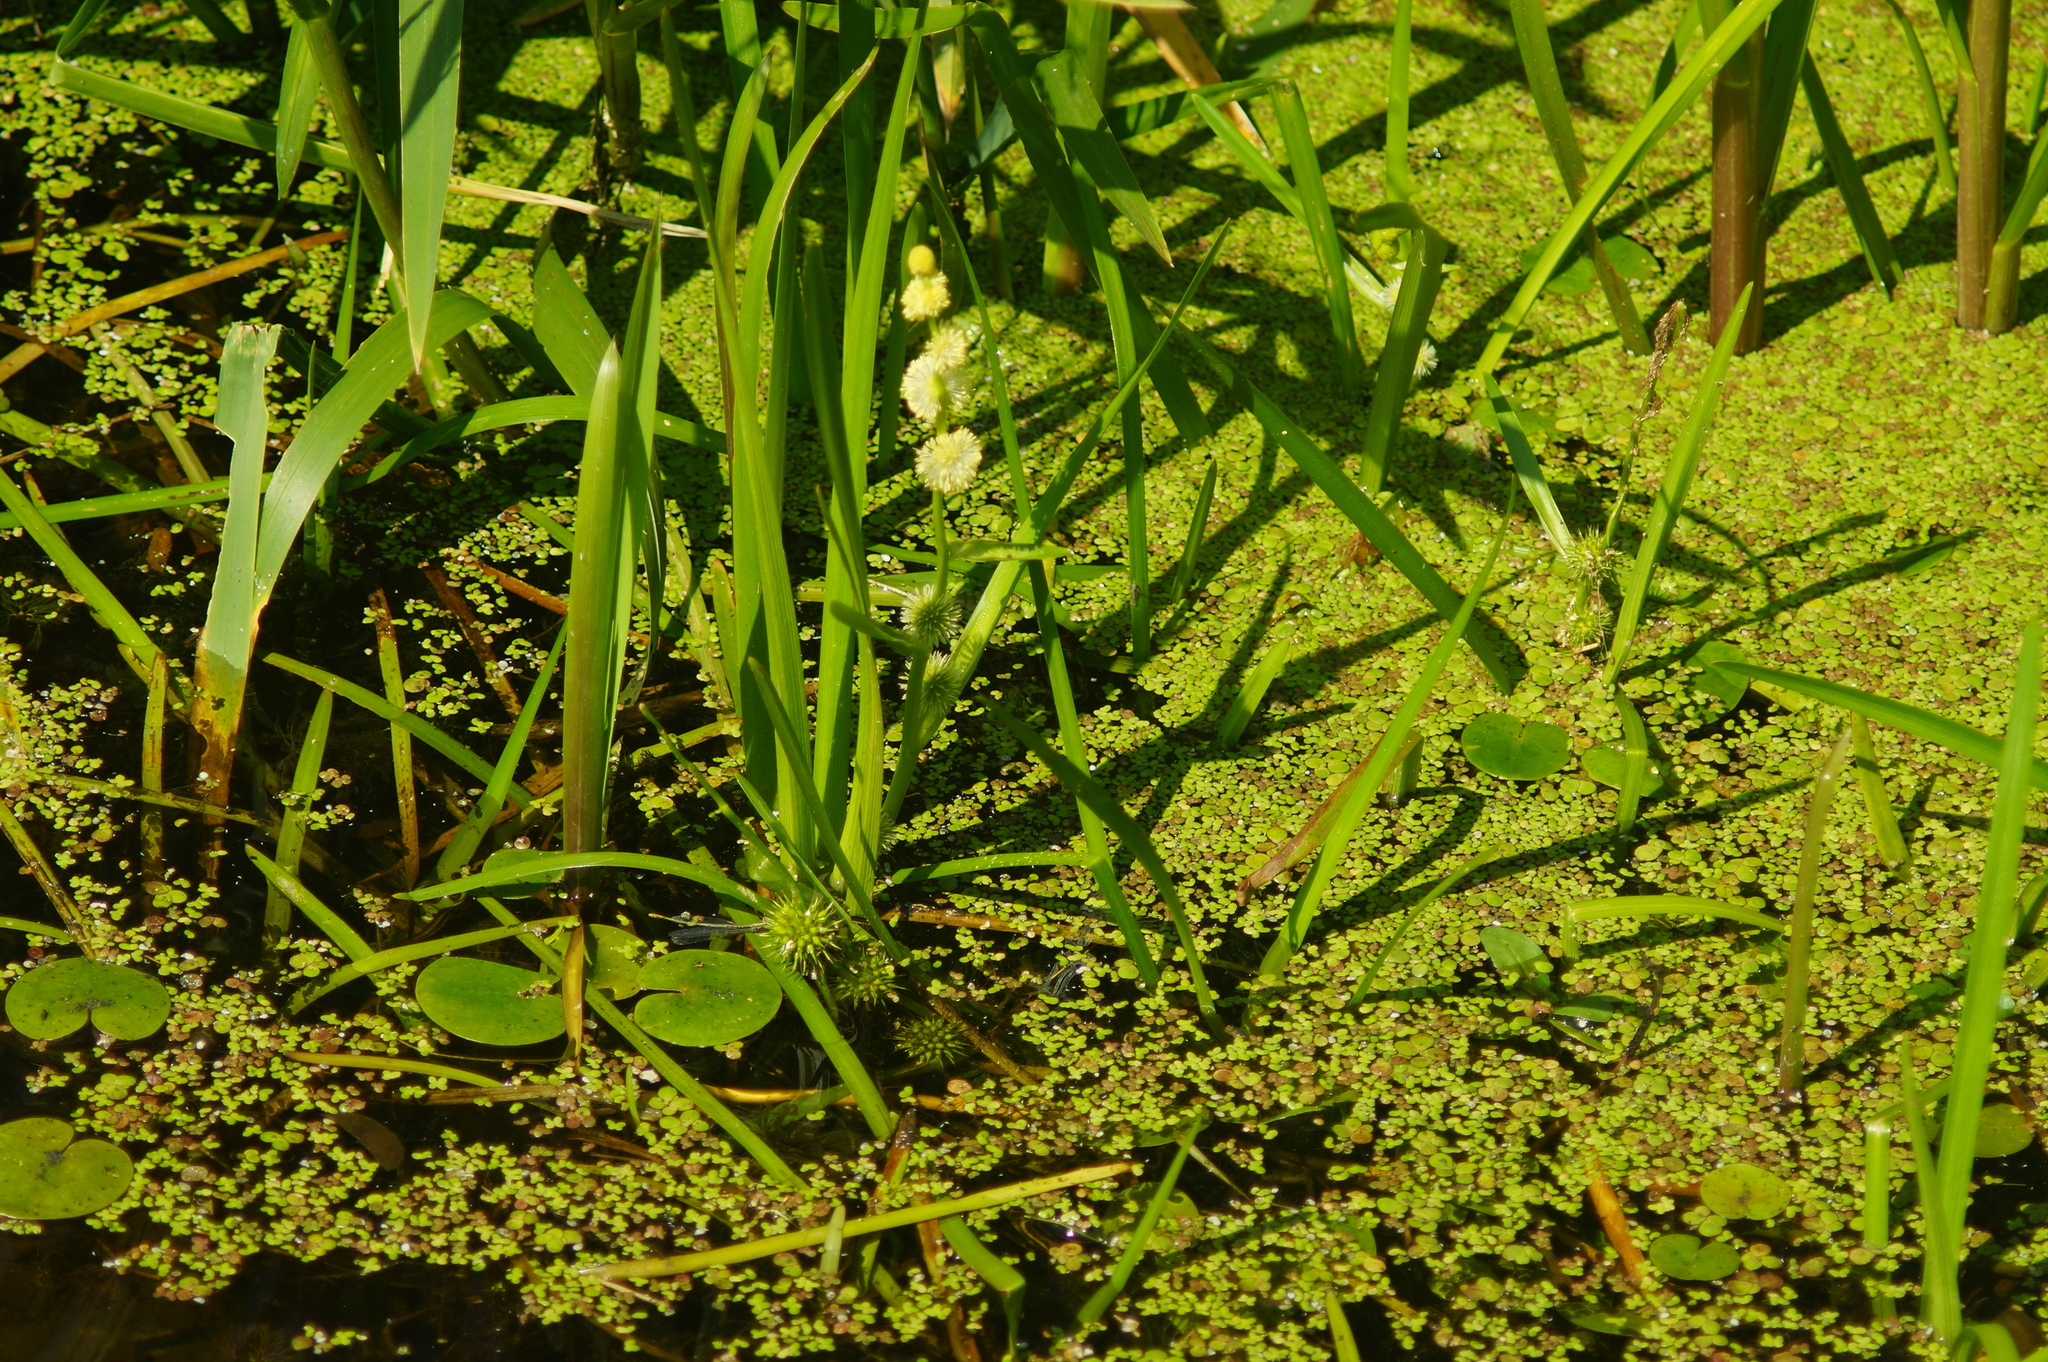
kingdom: Plantae
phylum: Tracheophyta
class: Liliopsida
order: Poales
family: Typhaceae
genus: Sparganium
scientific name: Sparganium emersum
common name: Unbranched bur-reed
